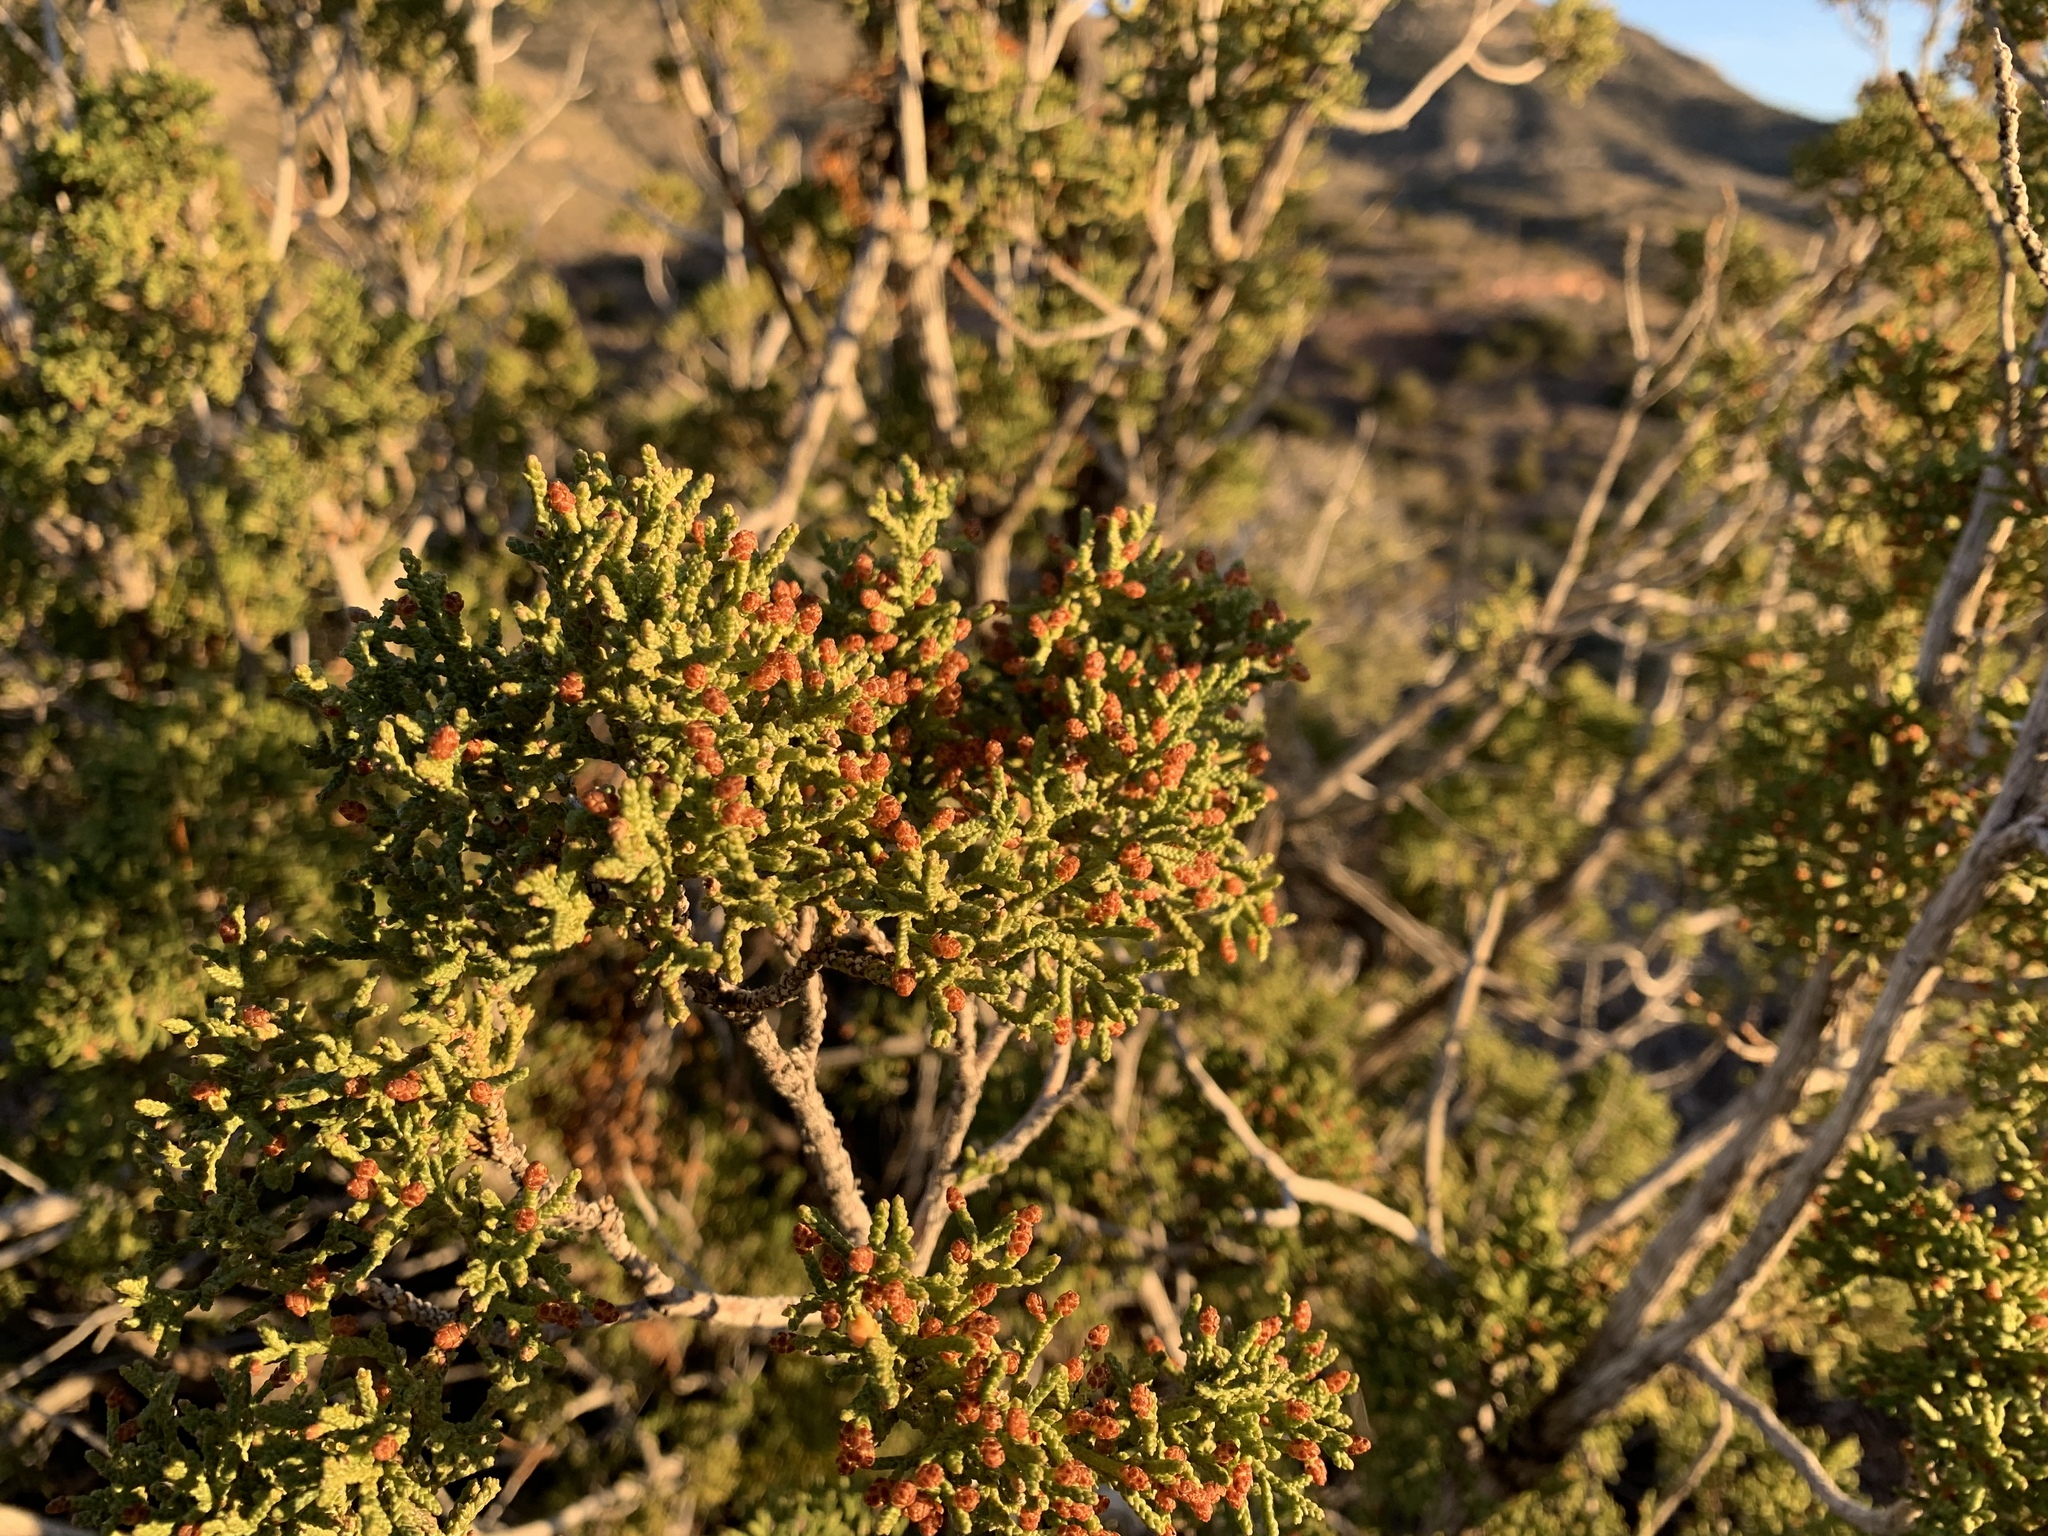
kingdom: Plantae
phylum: Tracheophyta
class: Pinopsida
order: Pinales
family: Cupressaceae
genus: Juniperus
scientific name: Juniperus monosperma
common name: One-seed juniper
